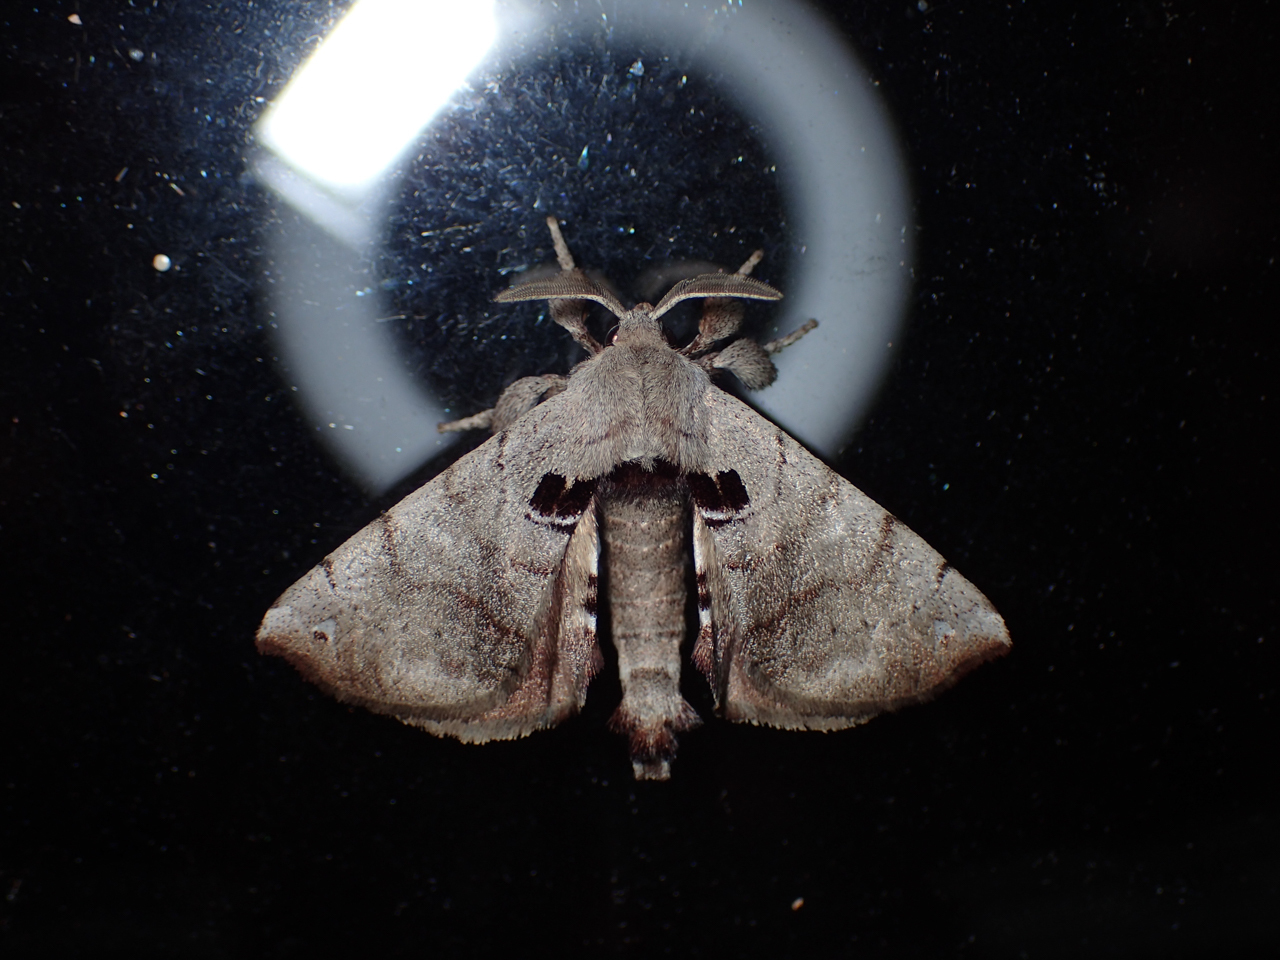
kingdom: Animalia
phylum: Arthropoda
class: Insecta
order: Lepidoptera
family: Apatelodidae
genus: Hygrochroa
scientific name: Hygrochroa Apatelodes torrefacta
